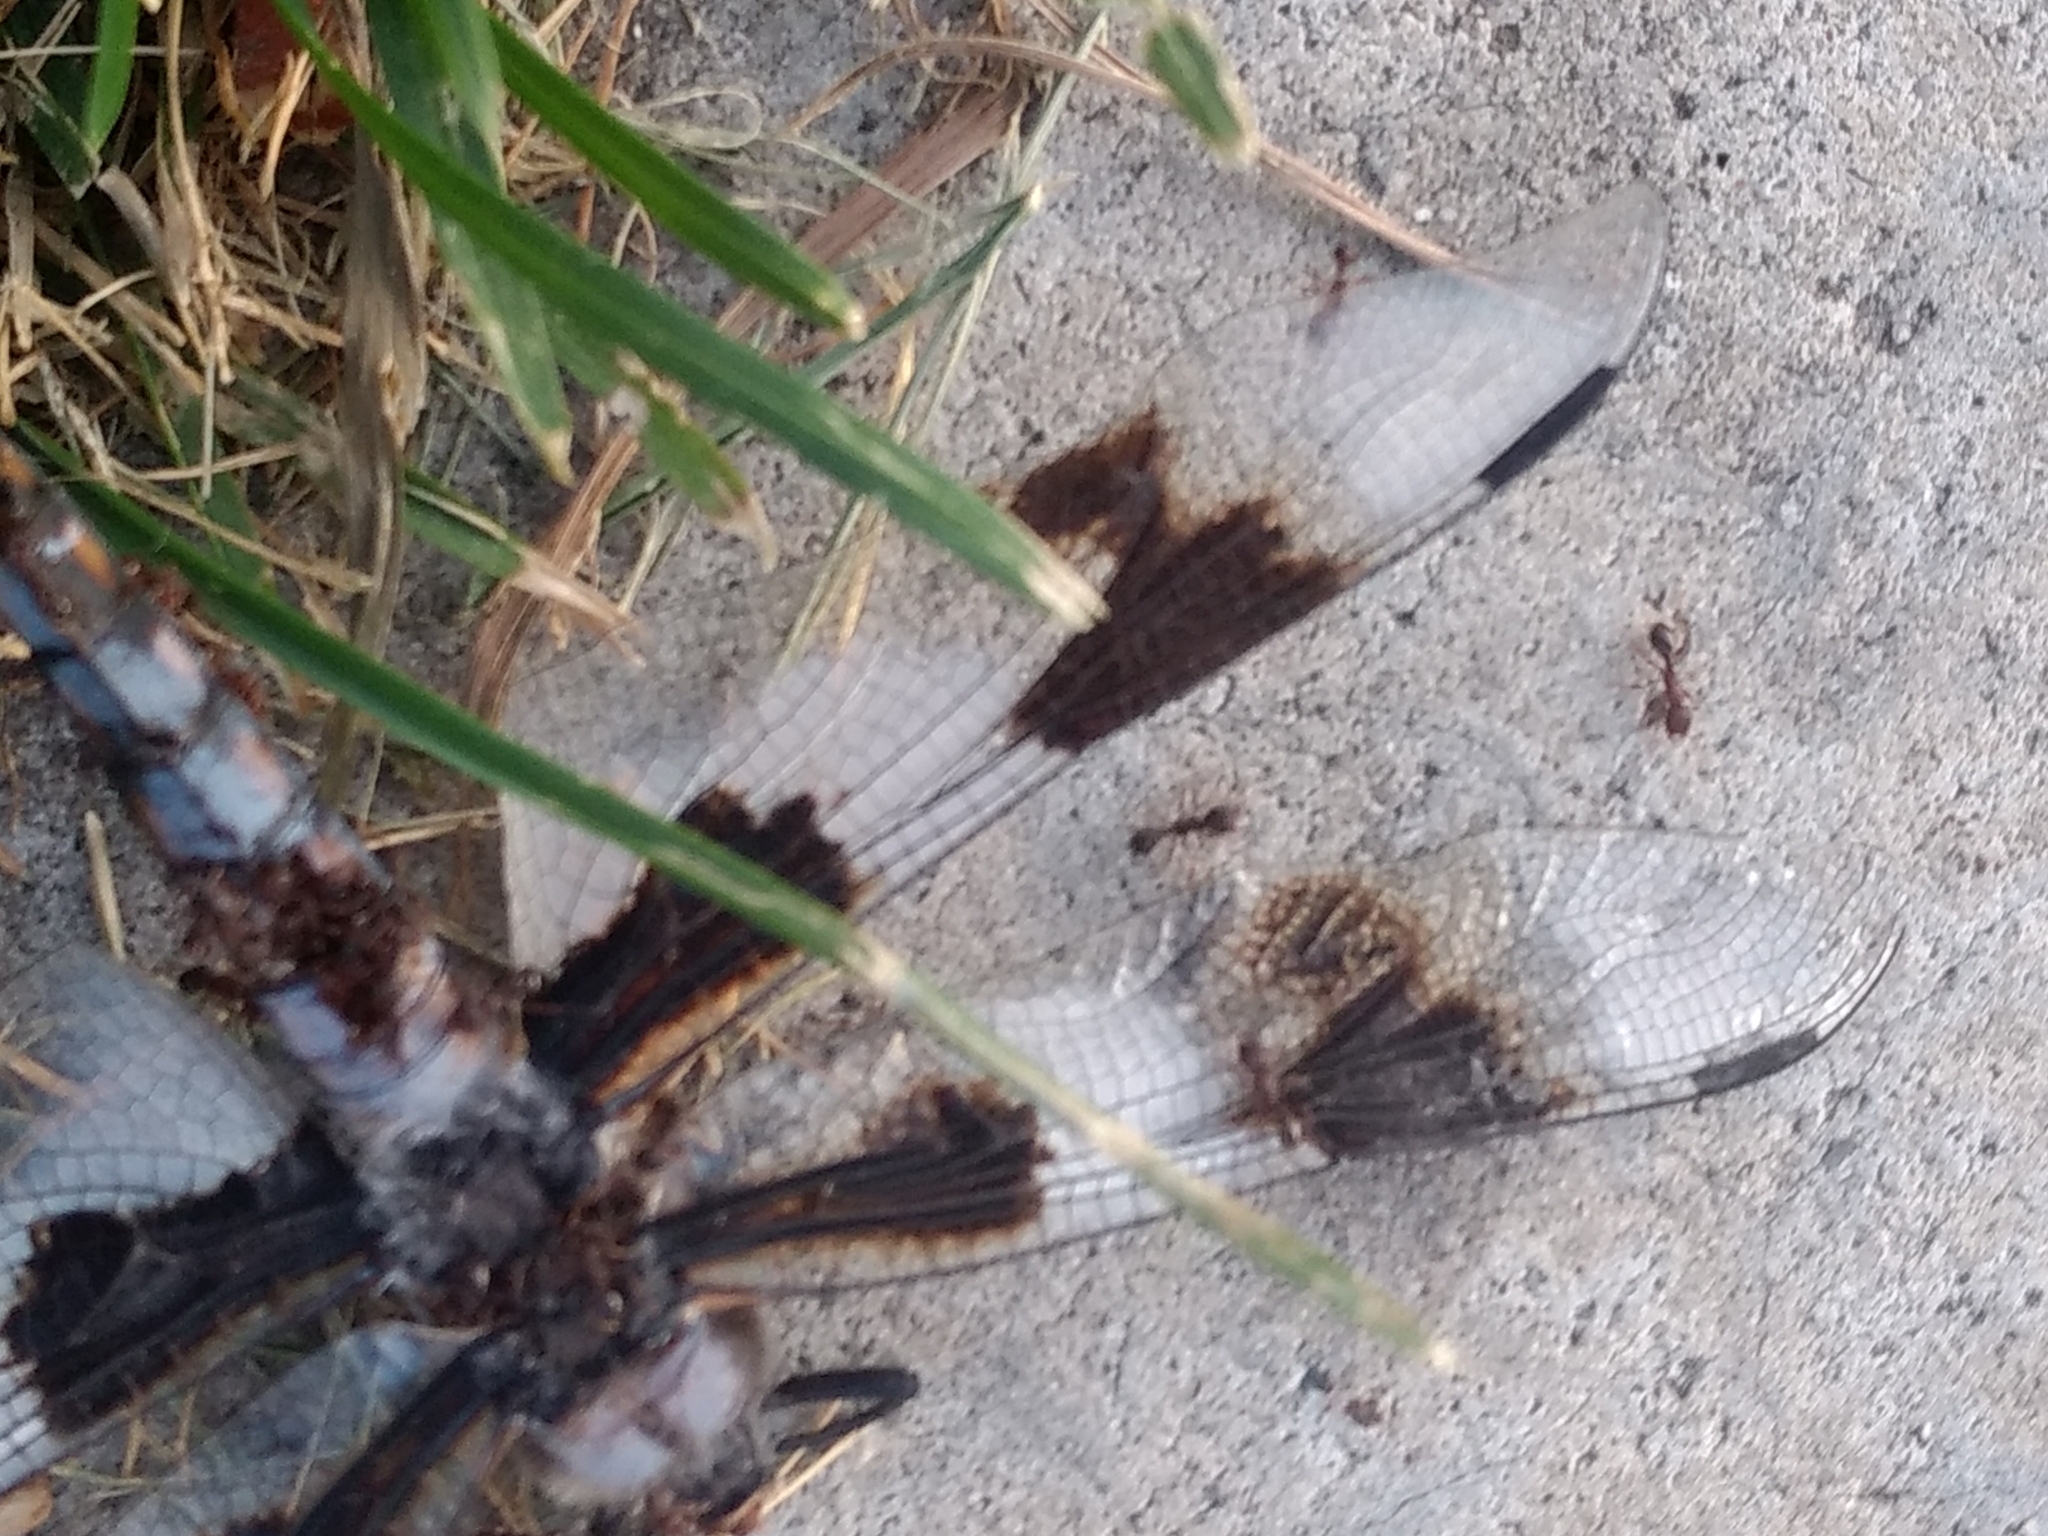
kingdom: Animalia
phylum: Arthropoda
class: Insecta
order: Odonata
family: Libellulidae
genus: Libellula
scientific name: Libellula forensis
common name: Eight-spotted skimmer
